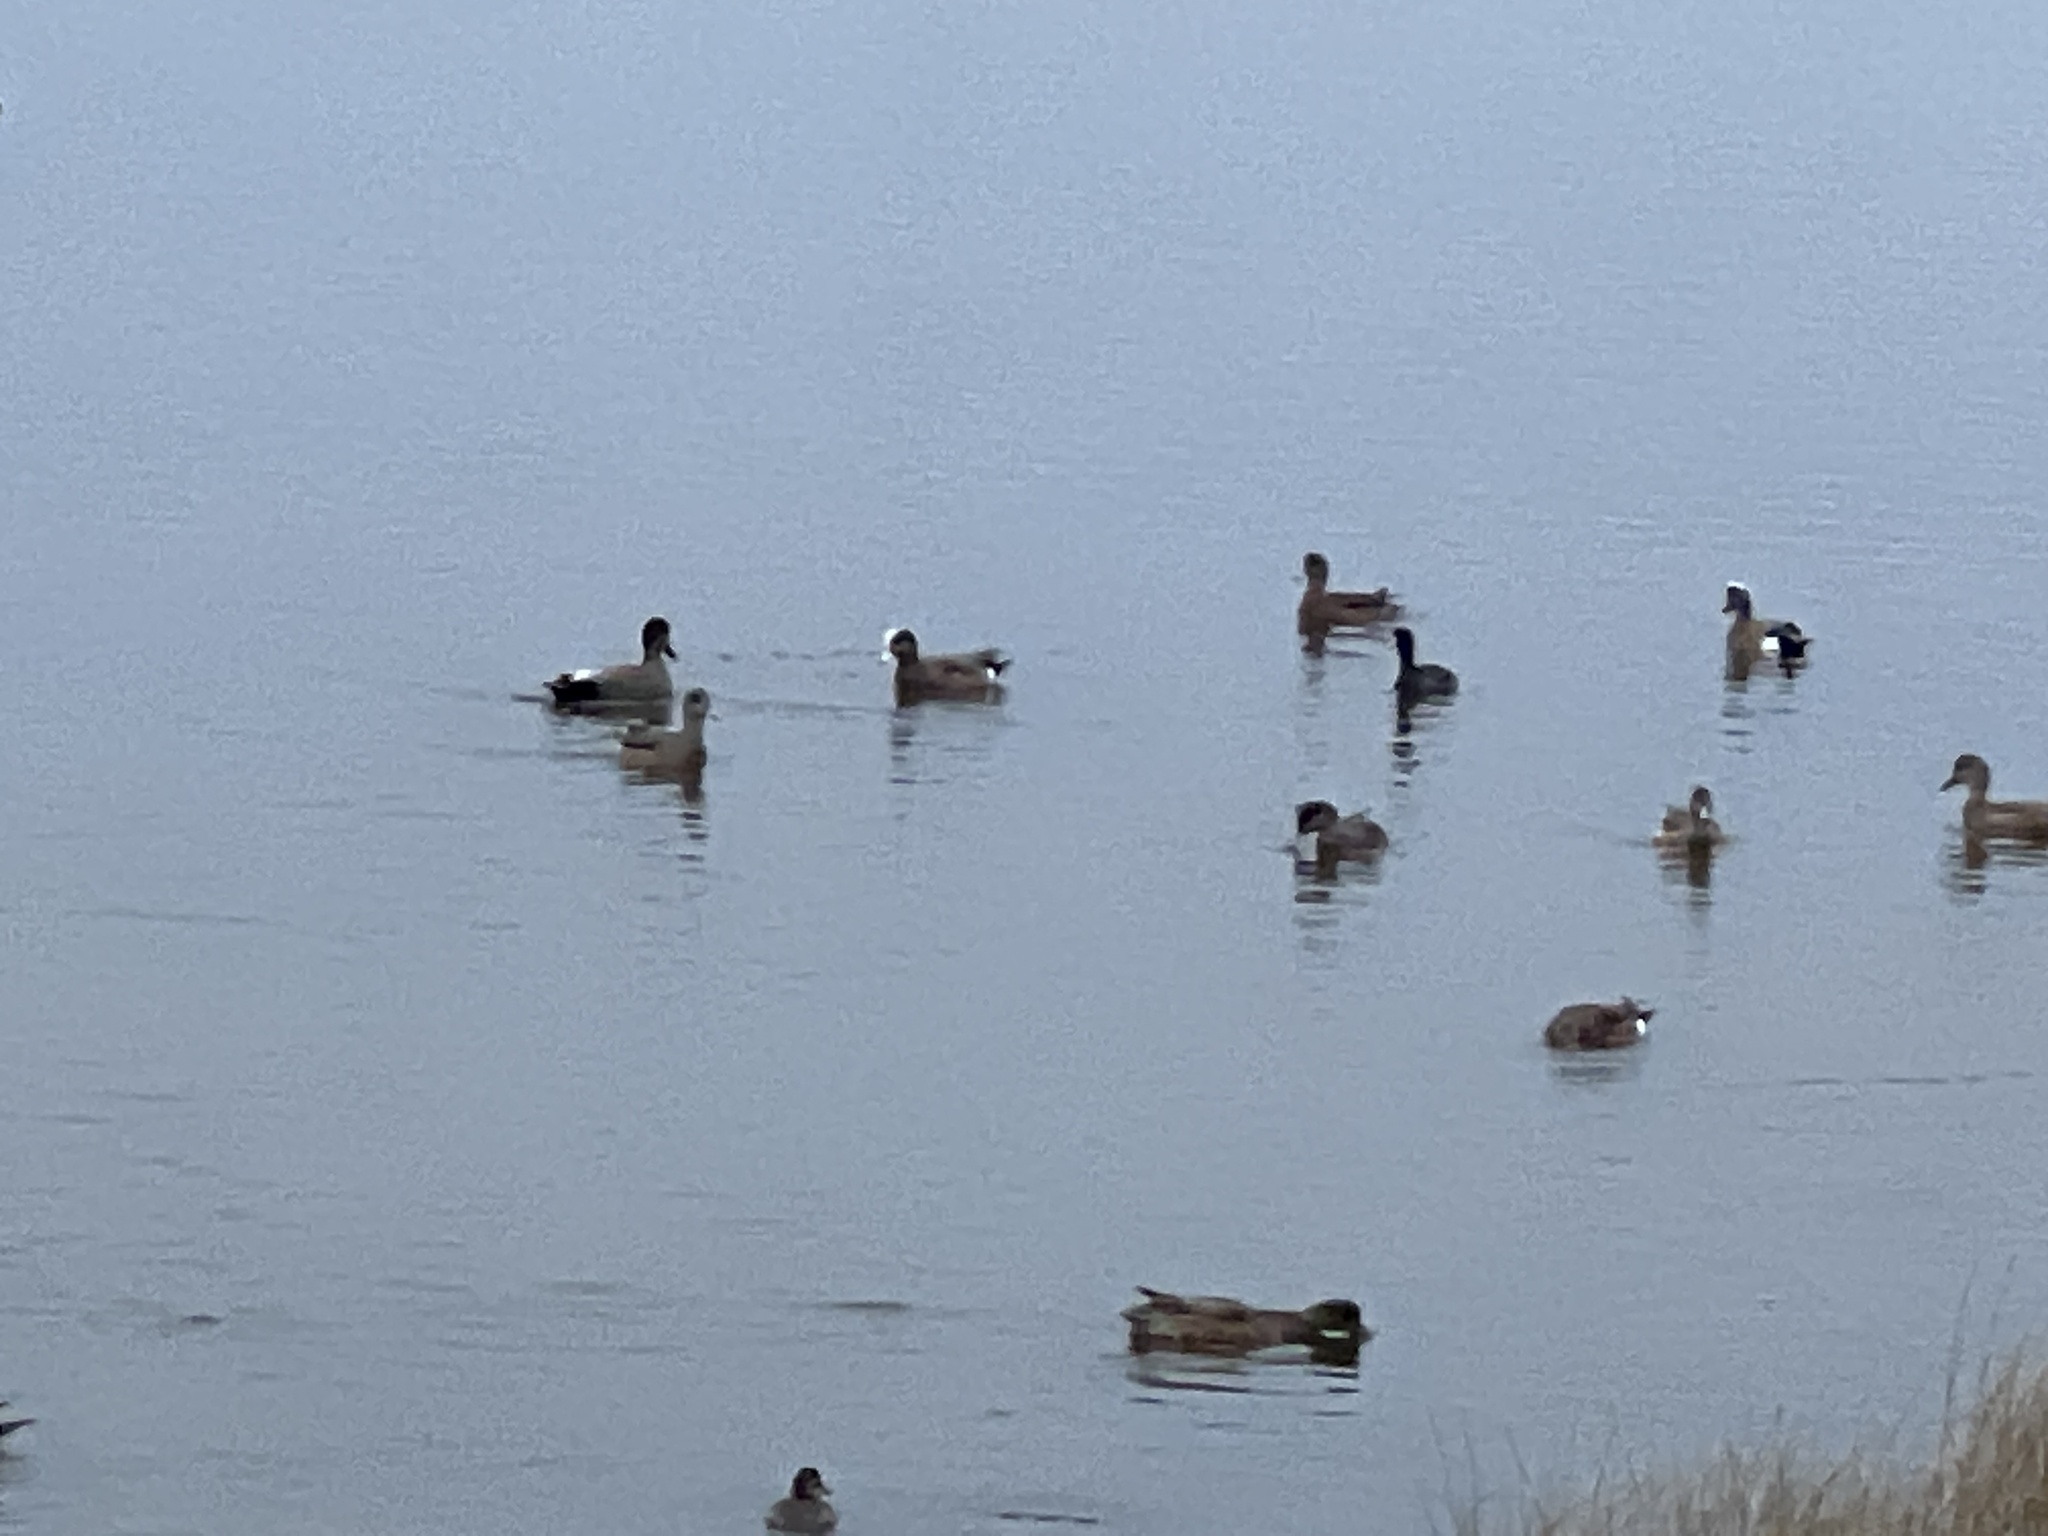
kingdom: Animalia
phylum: Chordata
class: Aves
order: Anseriformes
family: Anatidae
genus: Mareca
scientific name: Mareca americana
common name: American wigeon
